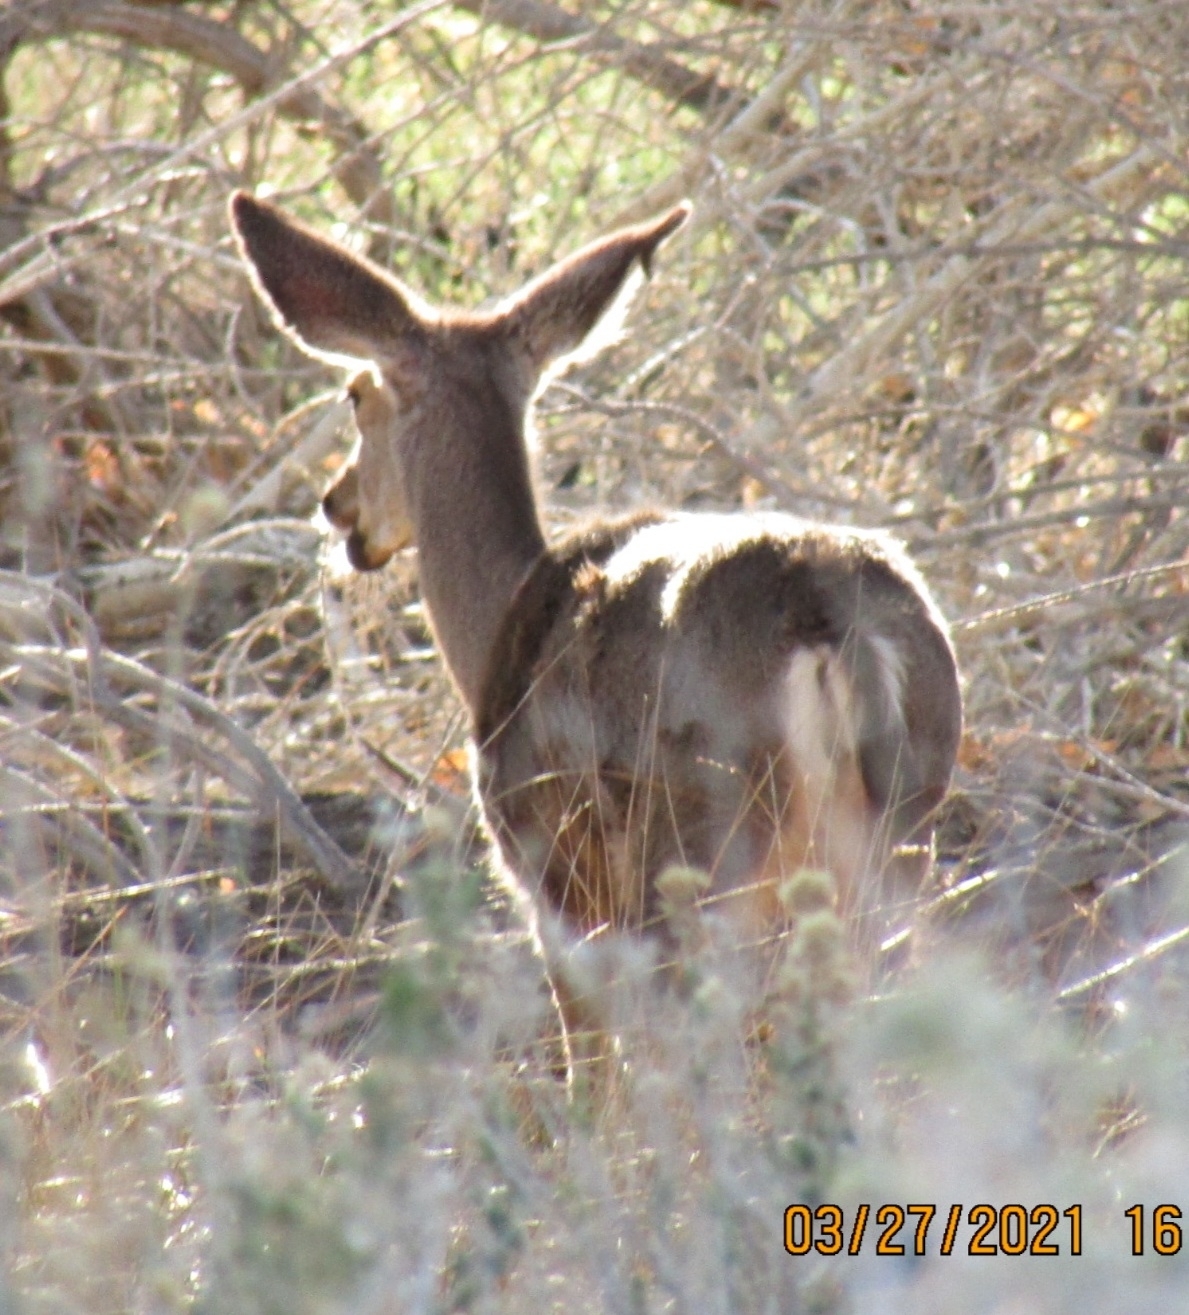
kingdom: Animalia
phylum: Chordata
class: Mammalia
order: Artiodactyla
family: Cervidae
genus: Odocoileus
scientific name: Odocoileus hemionus
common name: Mule deer
